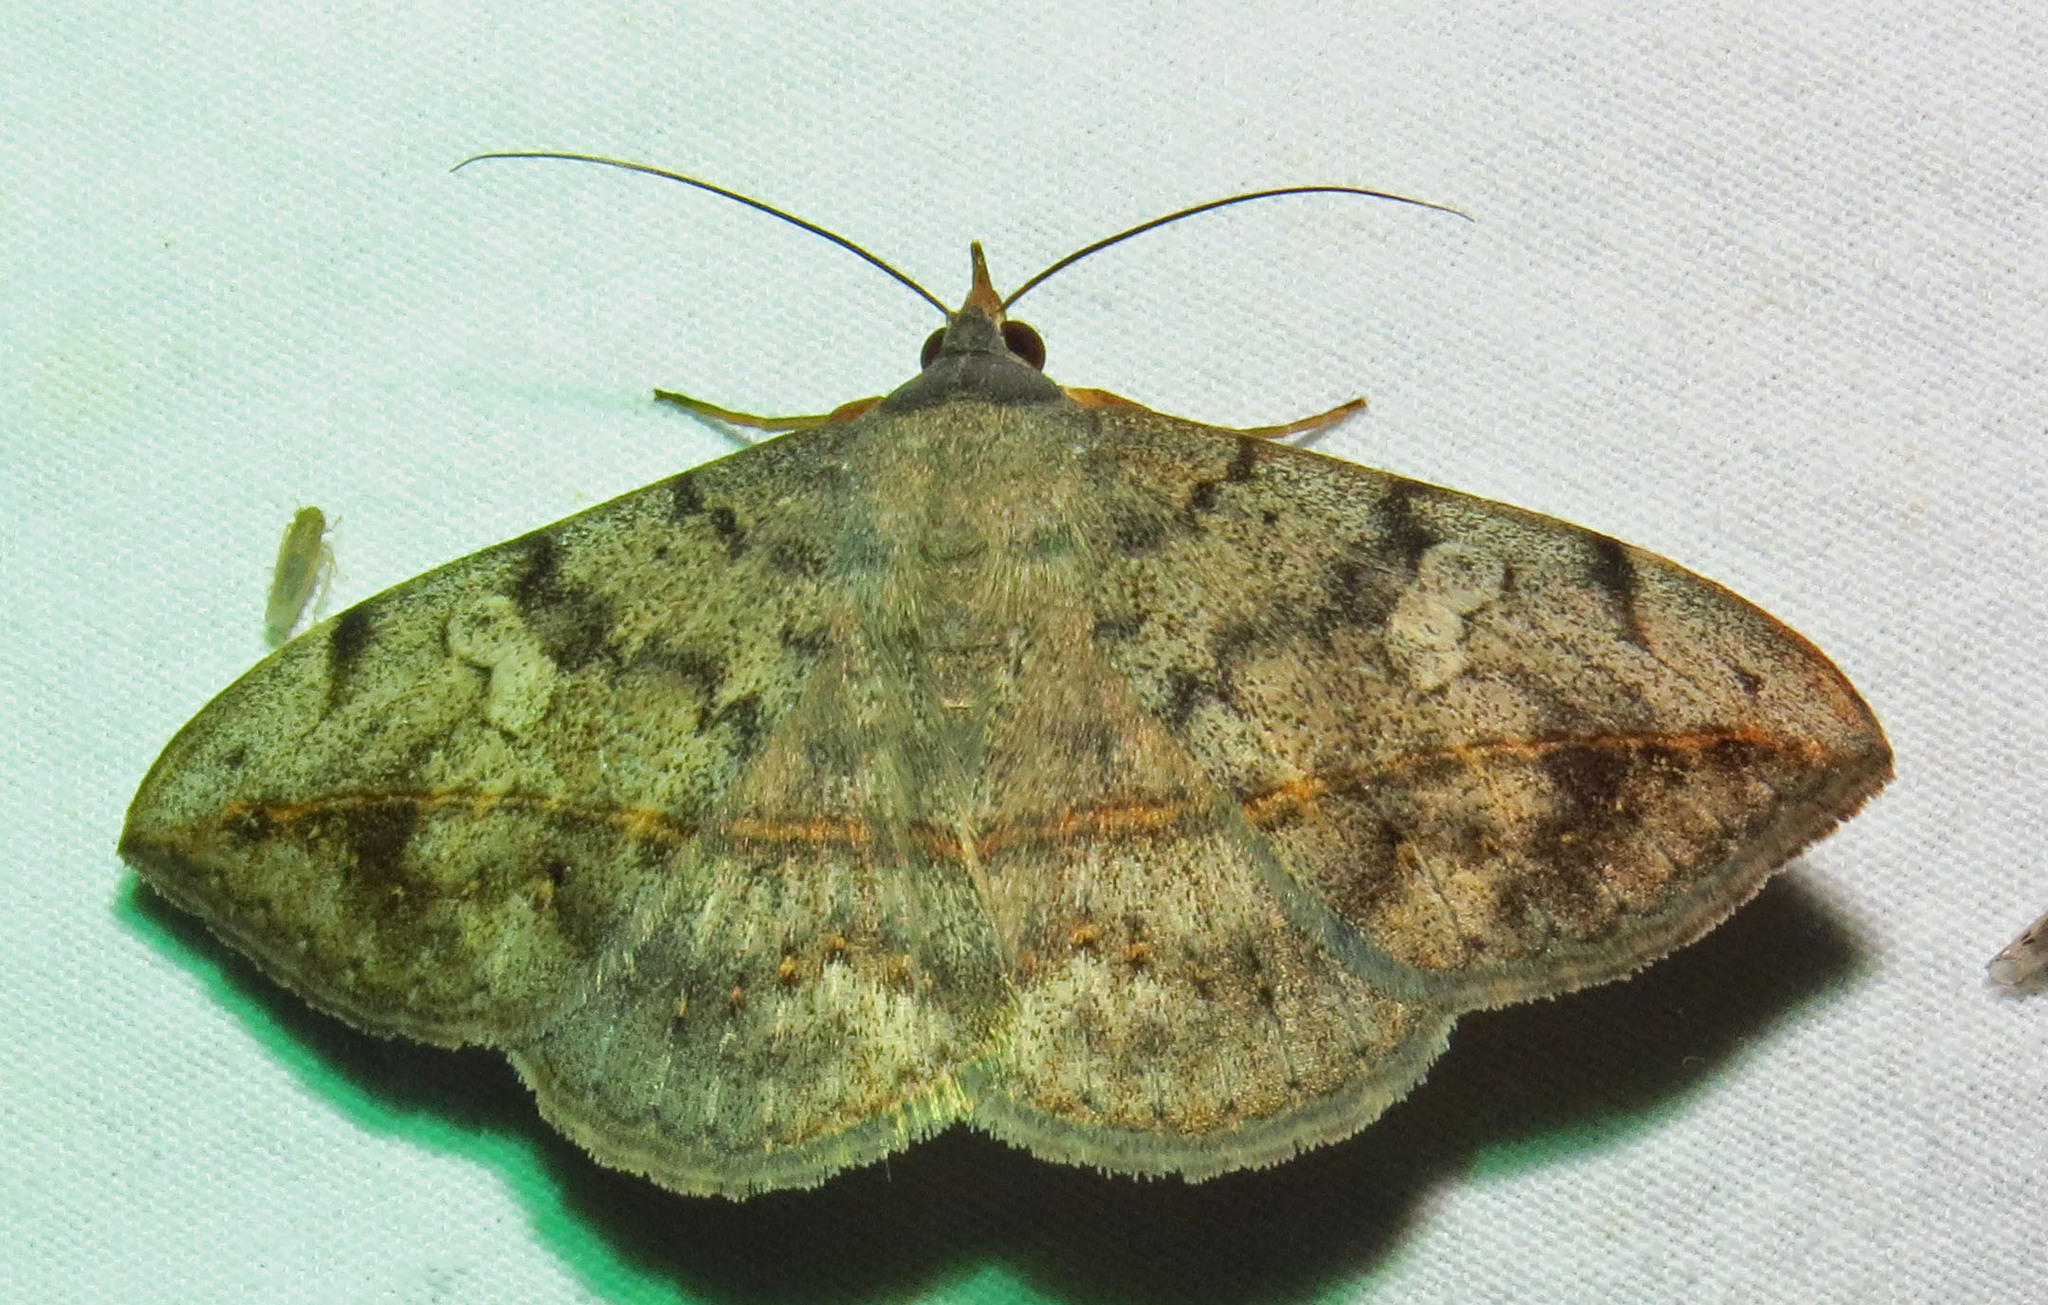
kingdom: Animalia
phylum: Arthropoda
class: Insecta
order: Lepidoptera
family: Erebidae
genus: Anticarsia
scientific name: Anticarsia gemmatalis
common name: Cutworm moth
